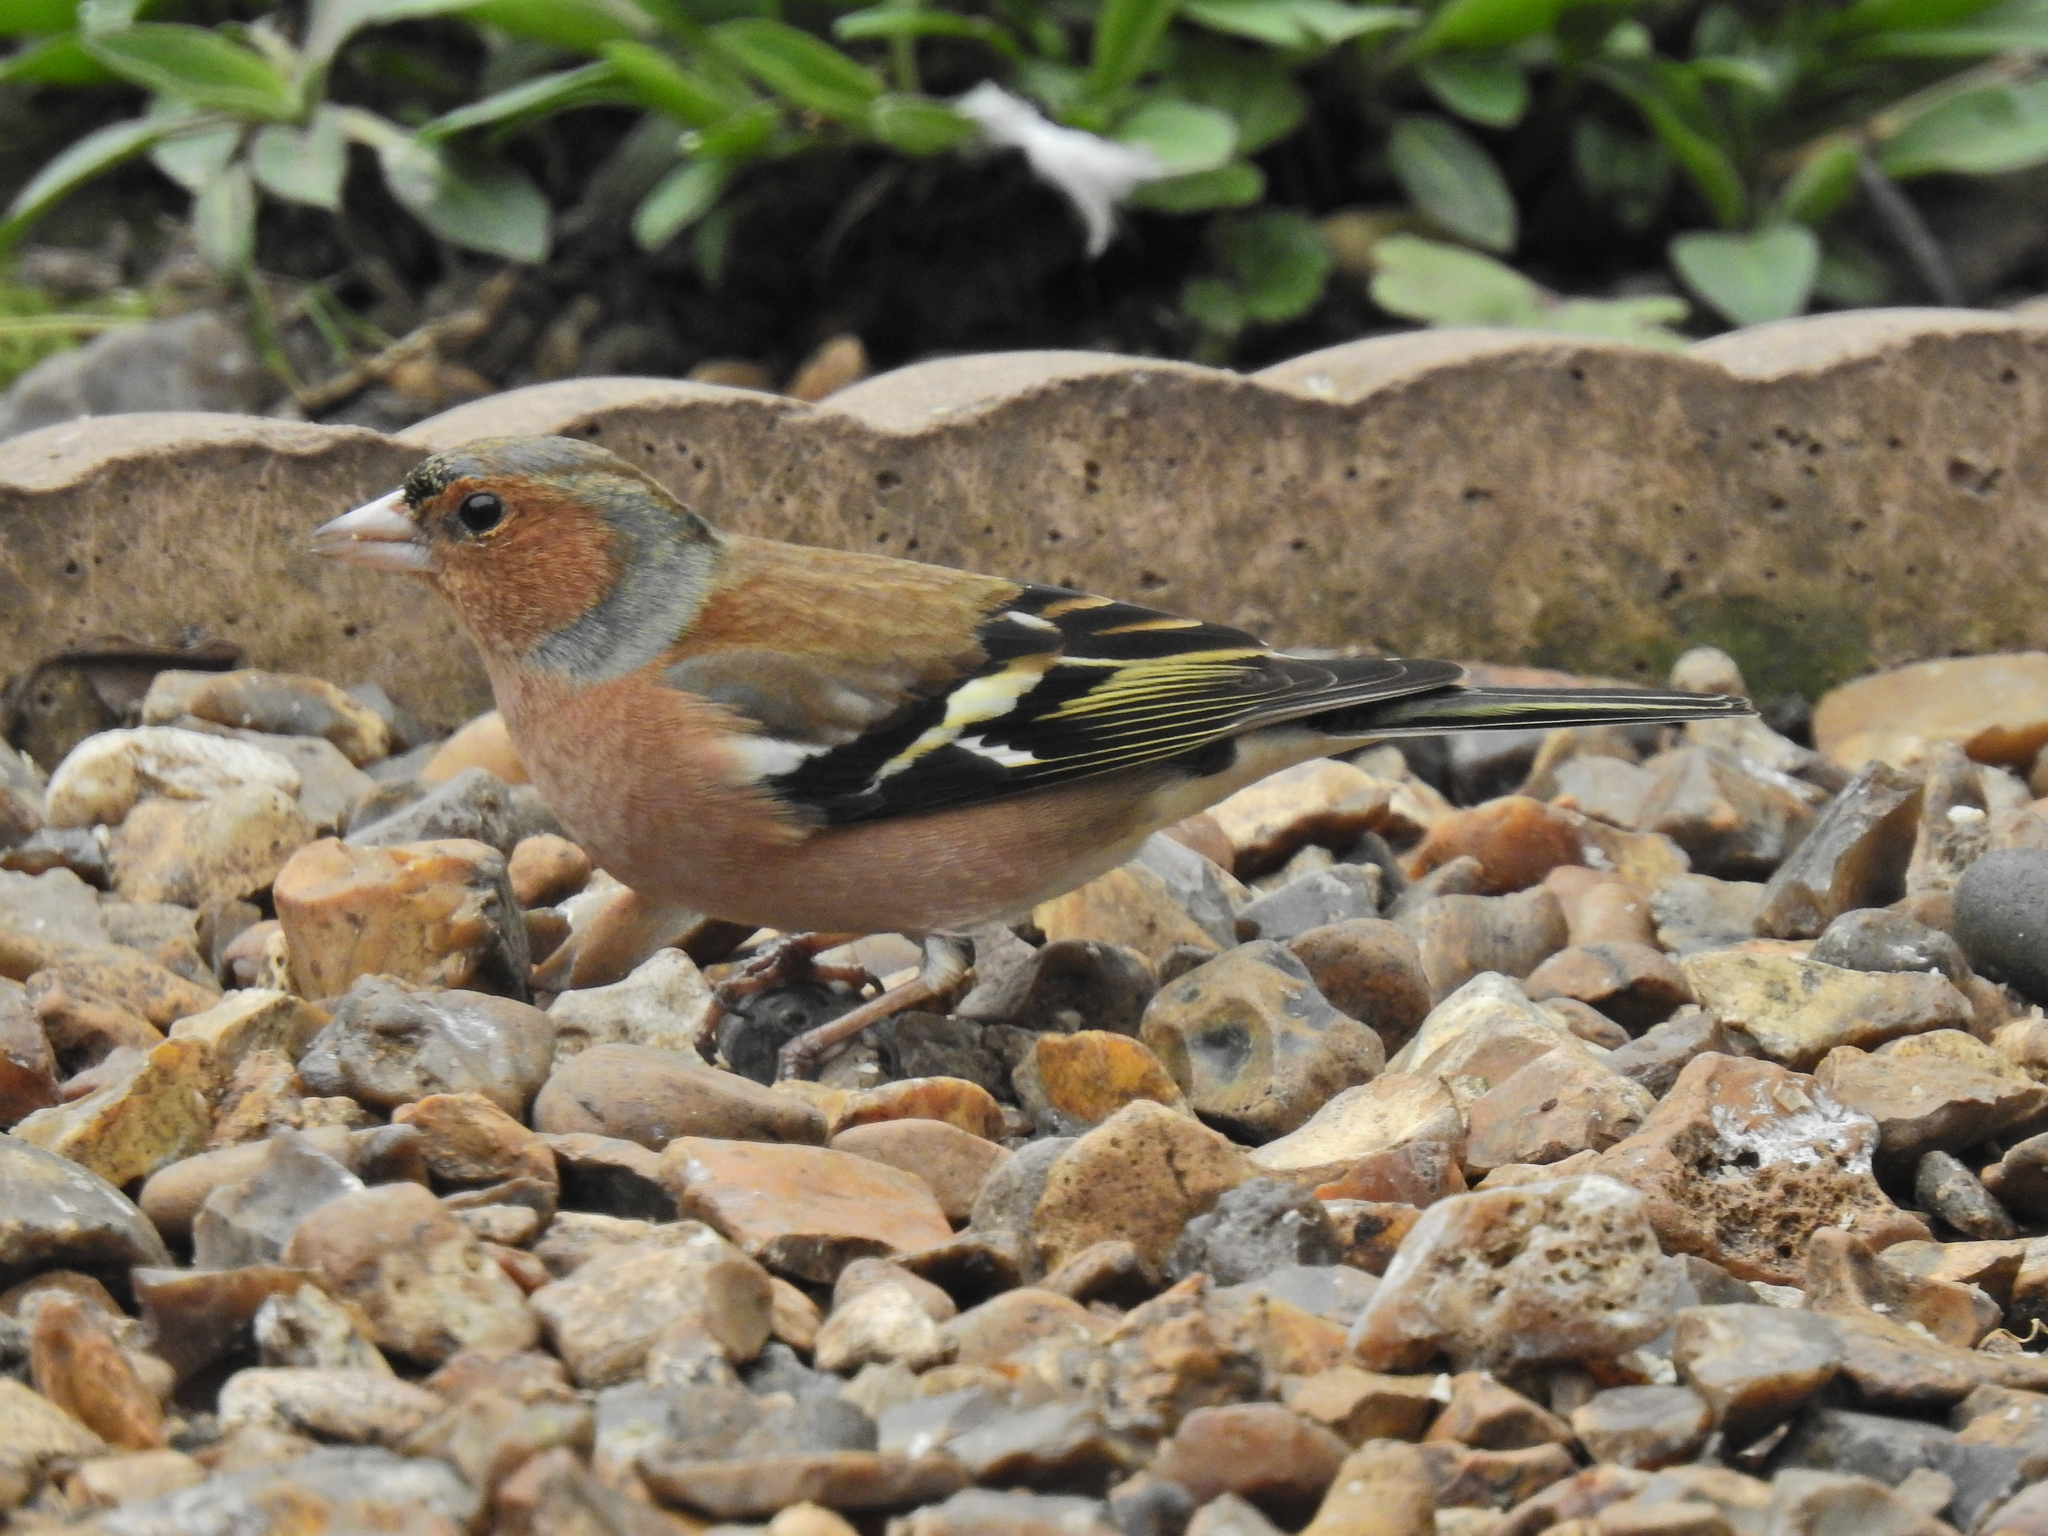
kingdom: Animalia
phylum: Chordata
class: Aves
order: Passeriformes
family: Fringillidae
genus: Fringilla
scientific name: Fringilla coelebs
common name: Common chaffinch
